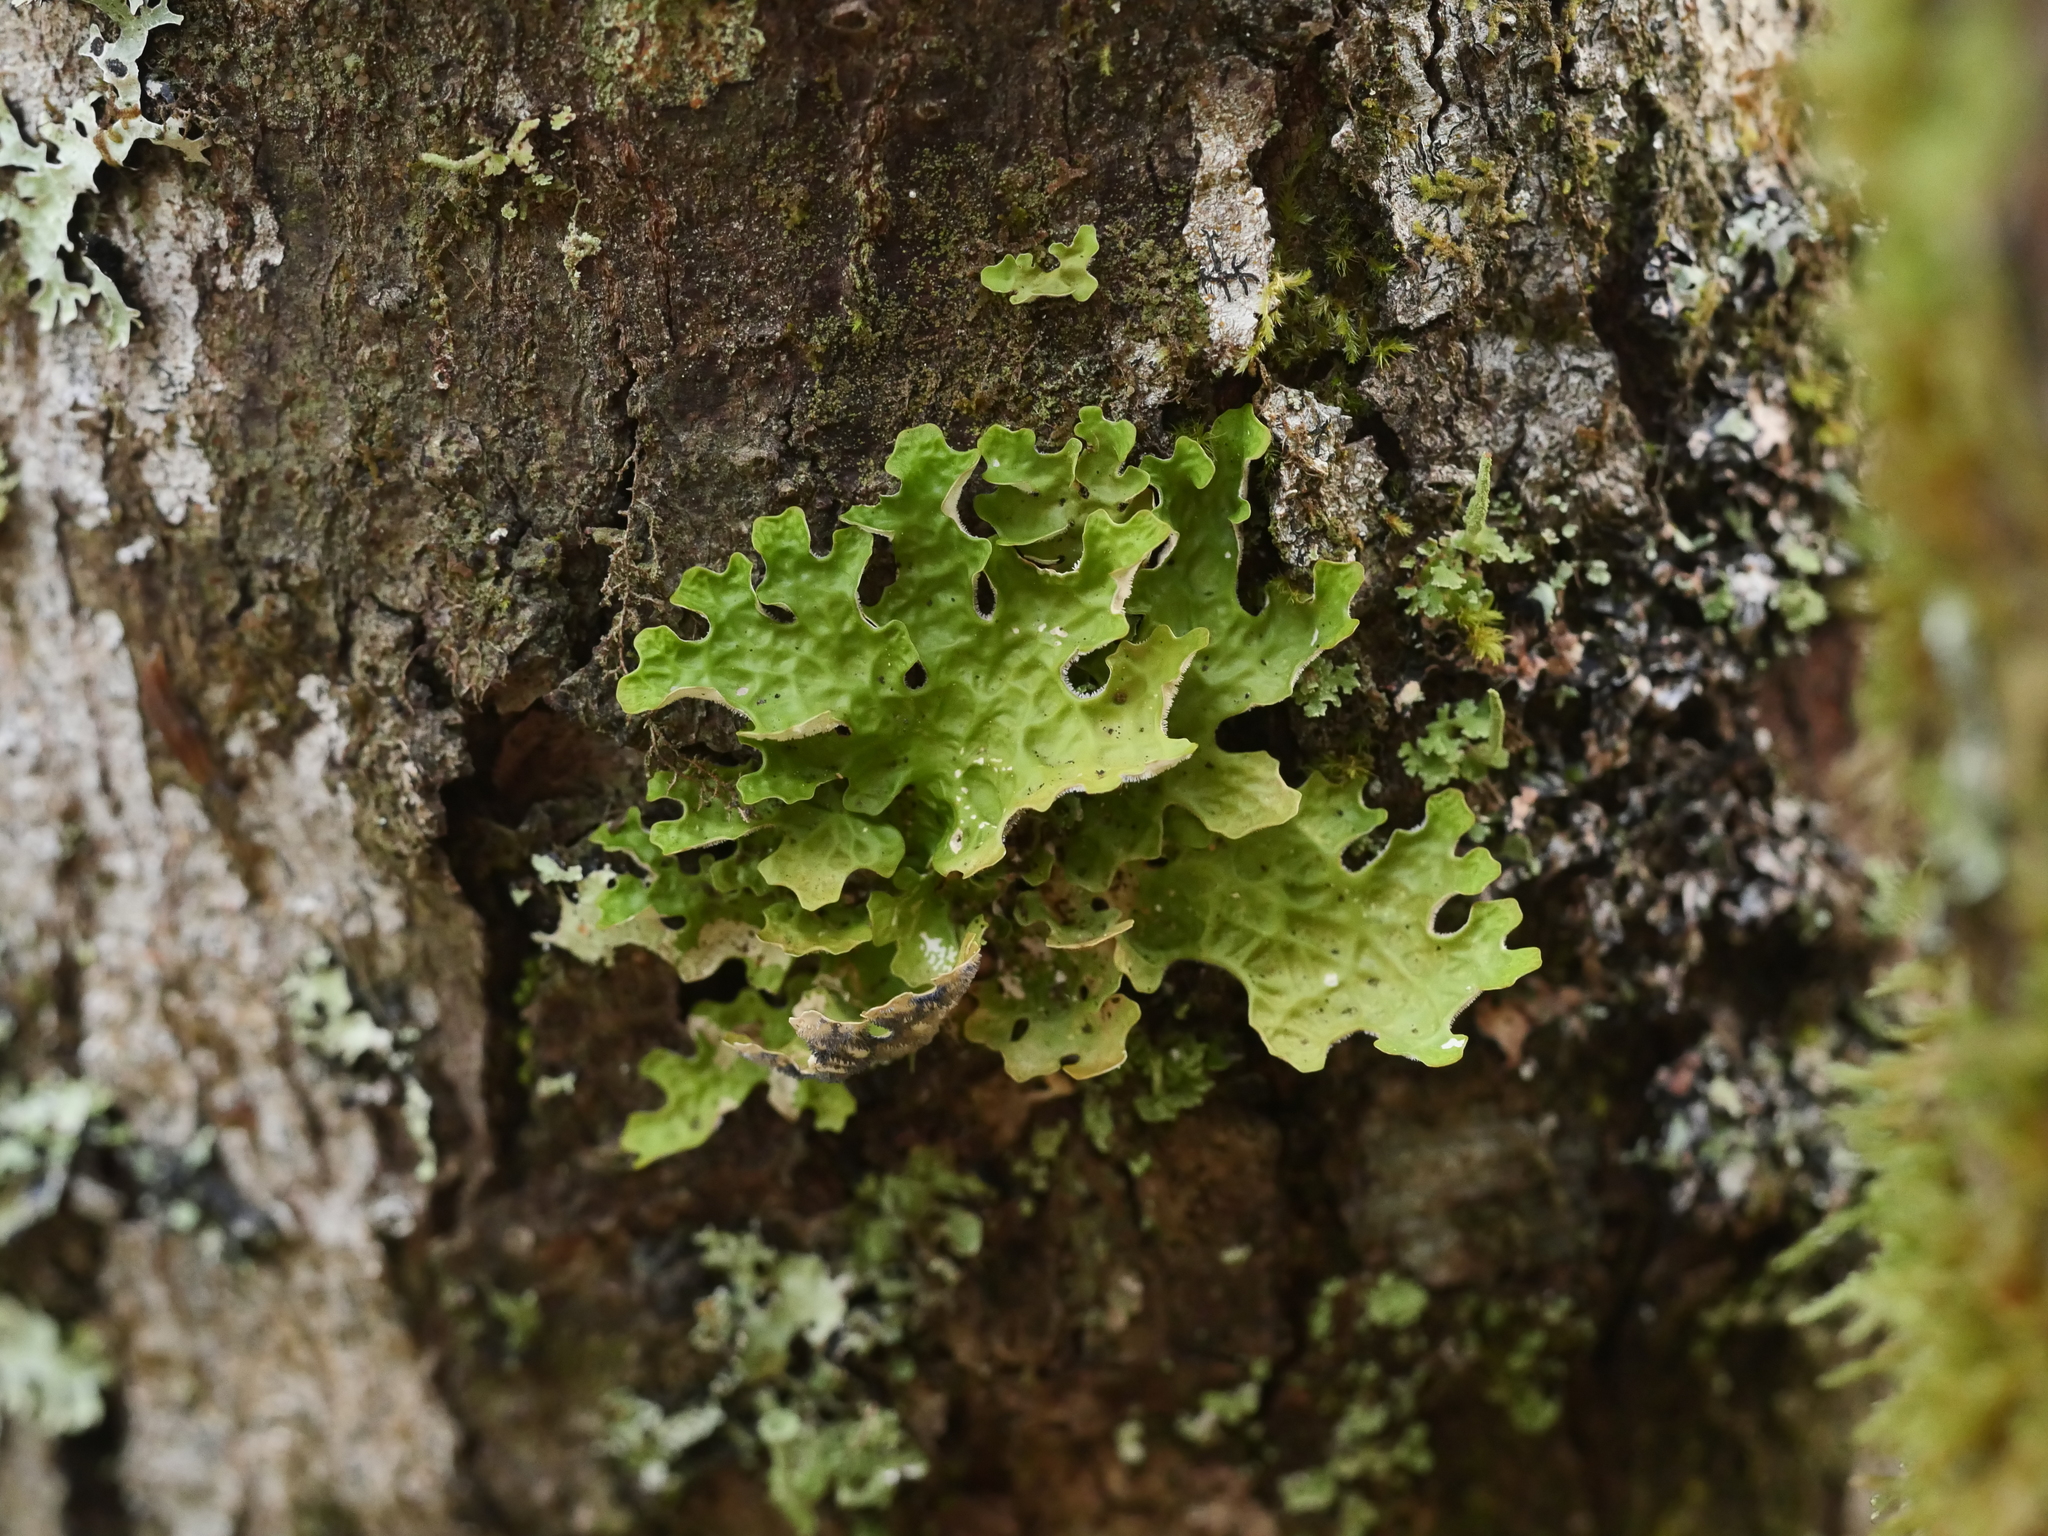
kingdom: Fungi
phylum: Ascomycota
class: Lecanoromycetes
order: Peltigerales
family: Lobariaceae
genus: Lobaria
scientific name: Lobaria pulmonaria
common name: Lungwort
